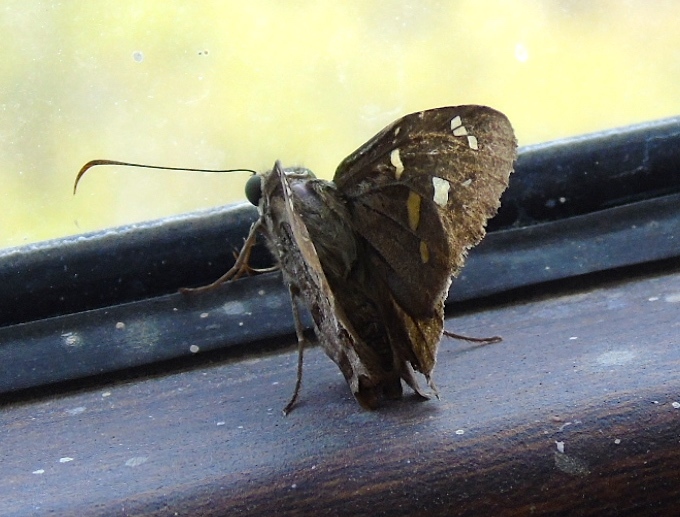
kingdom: Animalia
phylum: Arthropoda
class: Insecta
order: Lepidoptera
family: Hesperiidae
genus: Thorybes
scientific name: Thorybes
